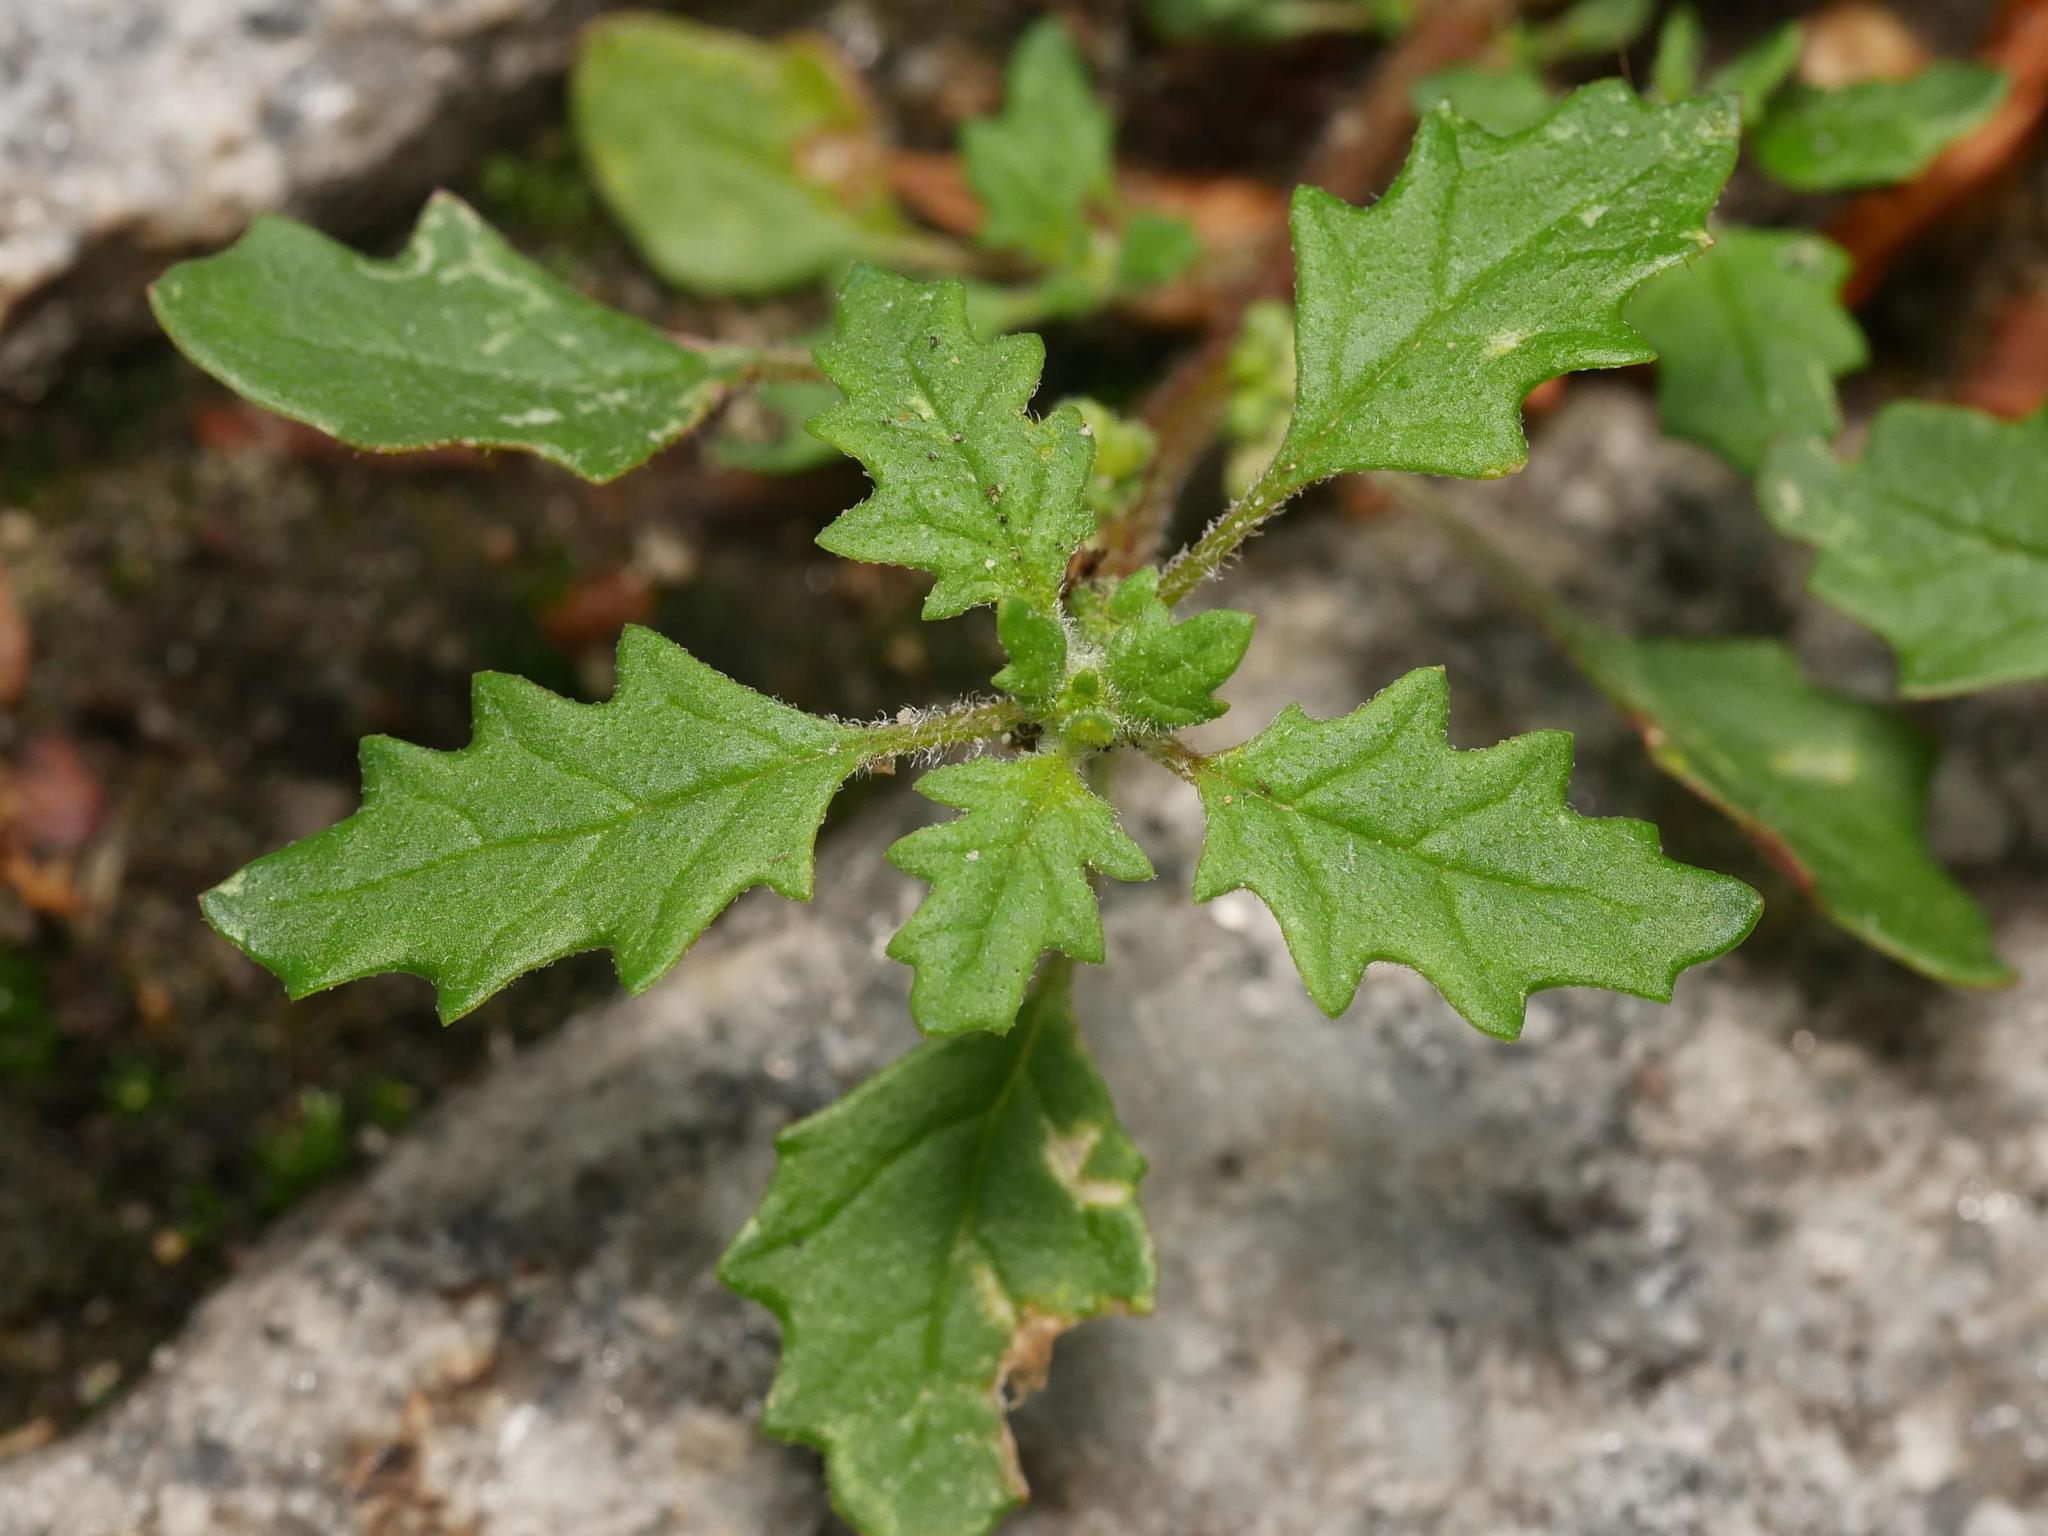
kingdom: Plantae
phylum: Tracheophyta
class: Magnoliopsida
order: Caryophyllales
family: Amaranthaceae
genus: Dysphania
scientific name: Dysphania pumilio
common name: Clammy goosefoot
